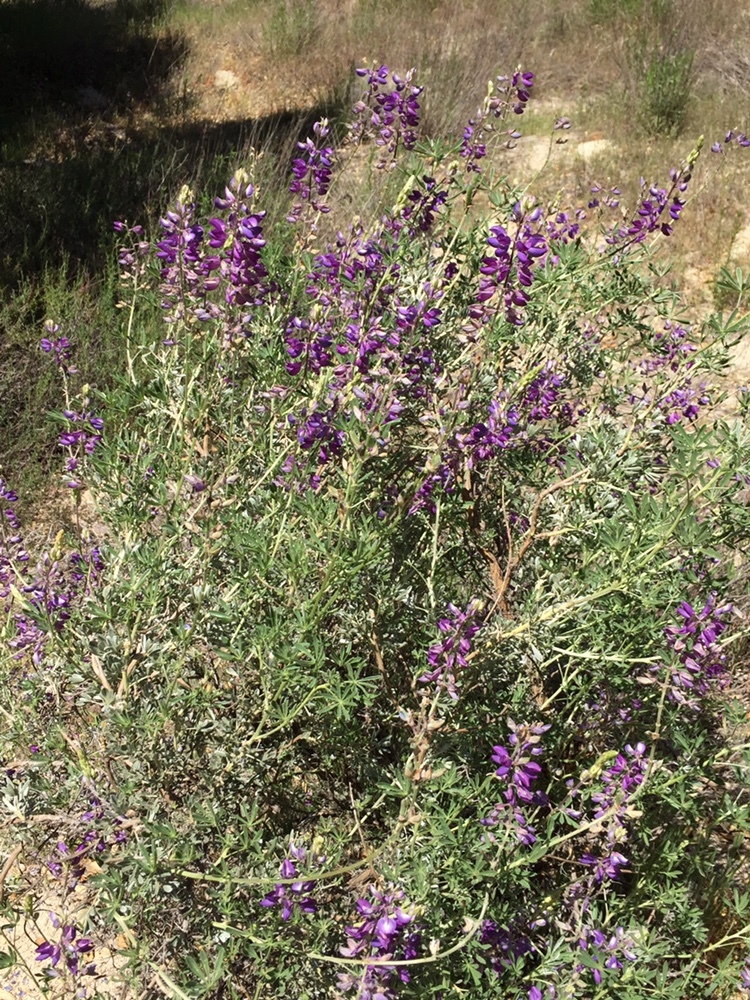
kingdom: Plantae
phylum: Tracheophyta
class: Magnoliopsida
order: Fabales
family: Fabaceae
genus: Lupinus
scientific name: Lupinus albifrons
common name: Foothill lupine
